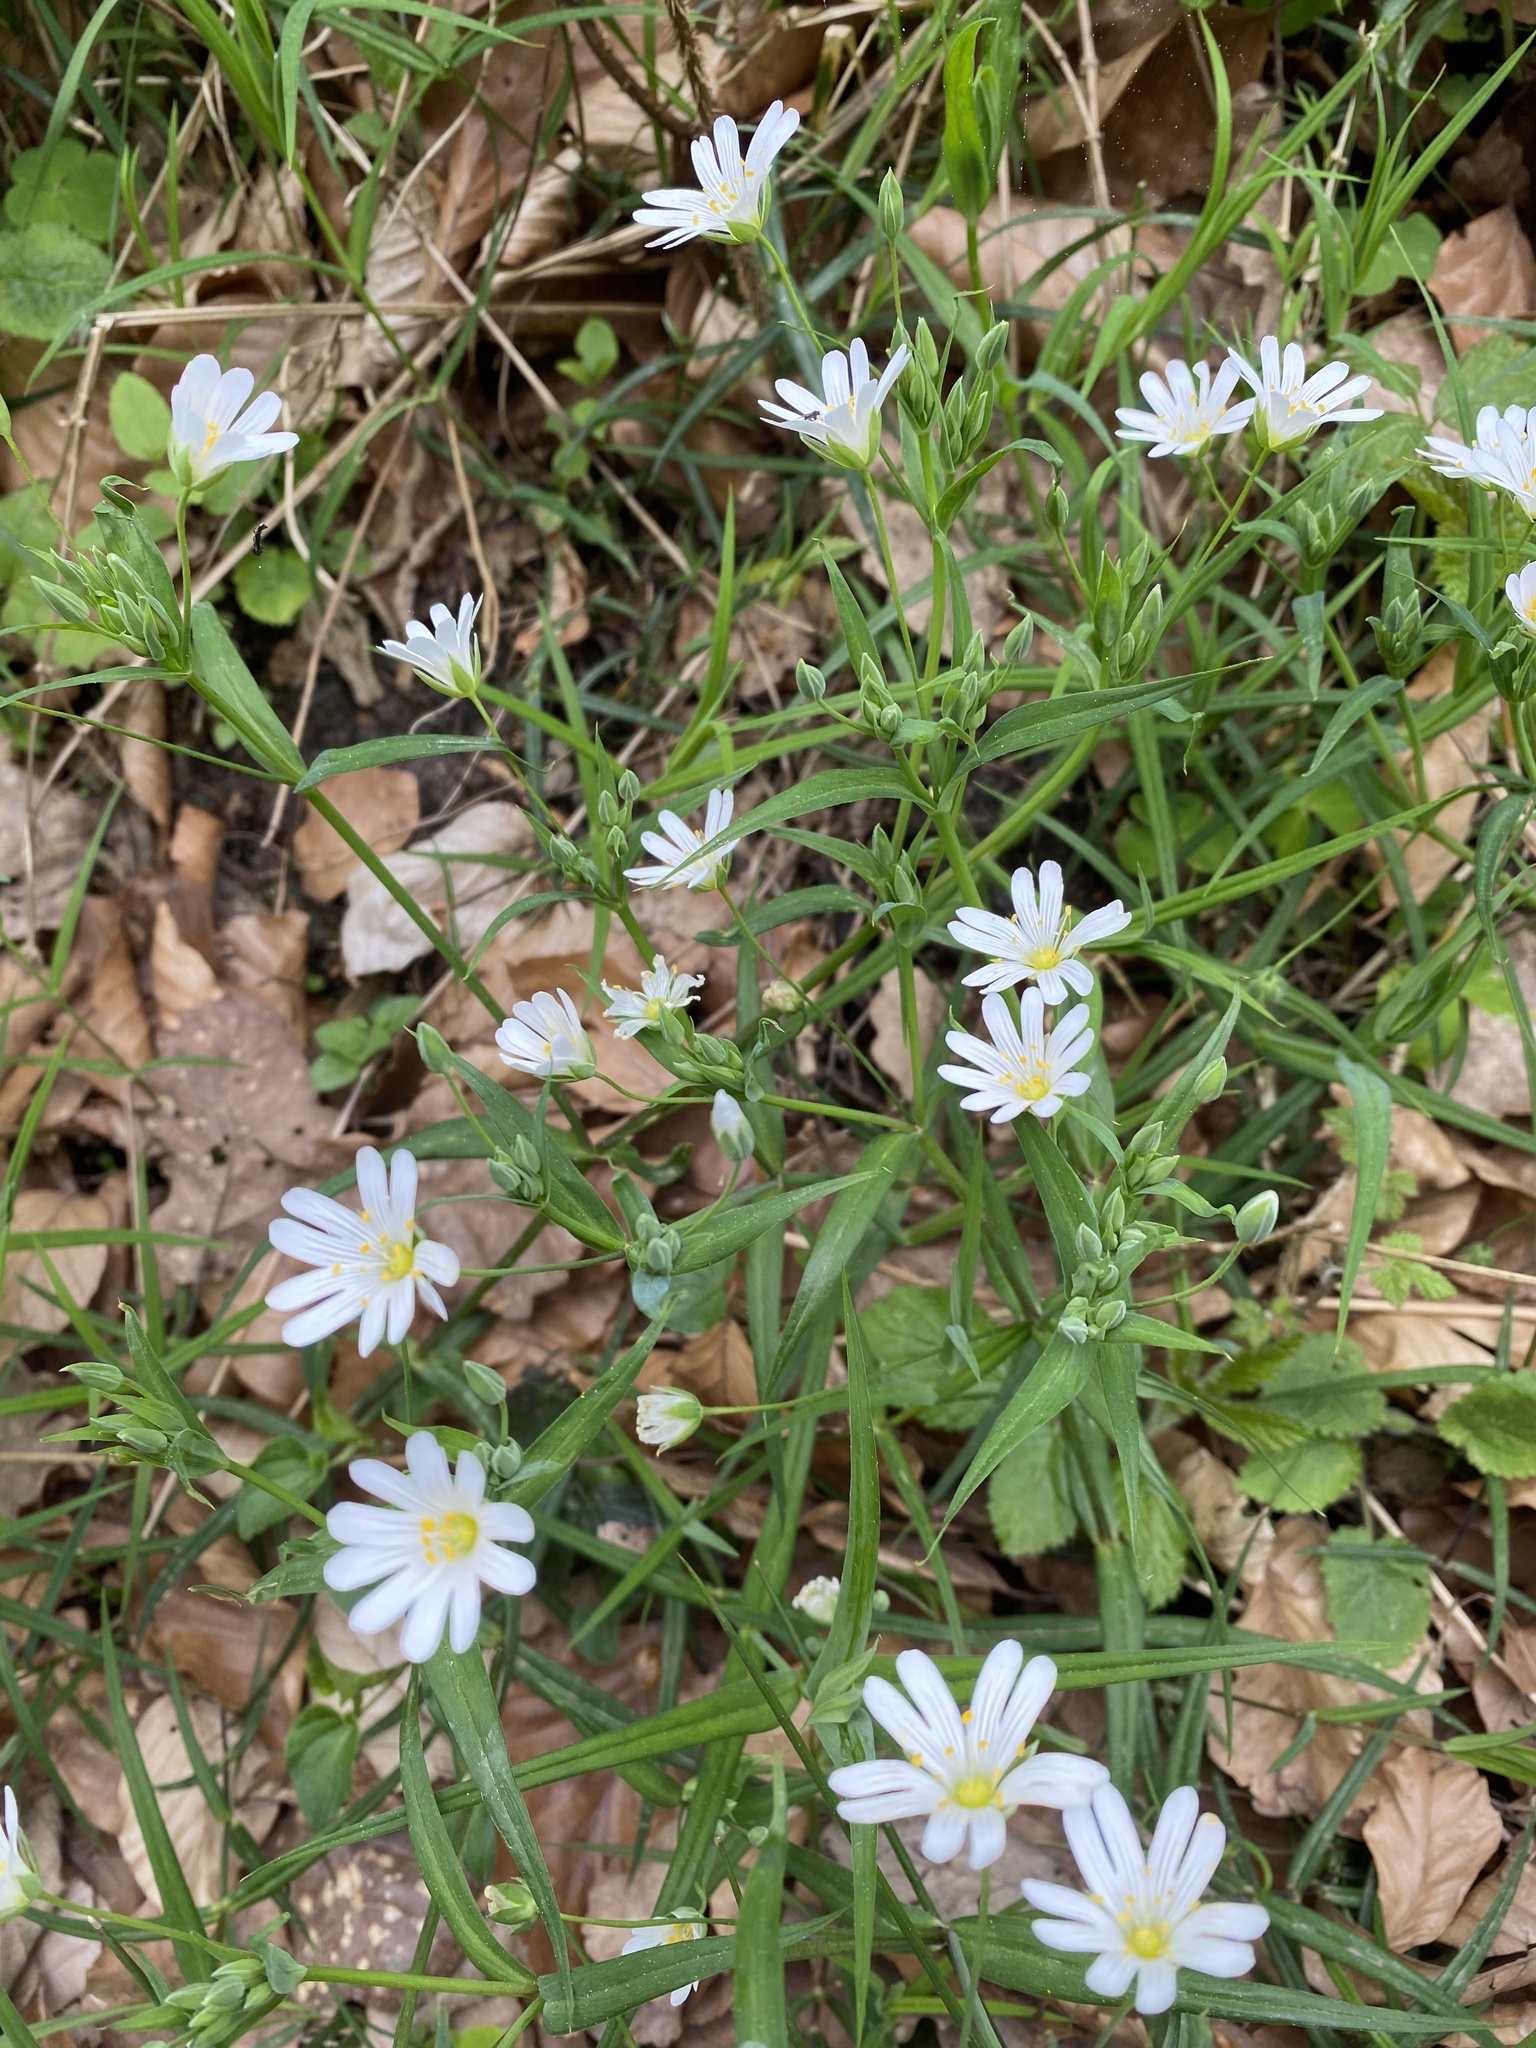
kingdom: Plantae
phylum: Tracheophyta
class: Magnoliopsida
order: Caryophyllales
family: Caryophyllaceae
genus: Rabelera
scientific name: Rabelera holostea
